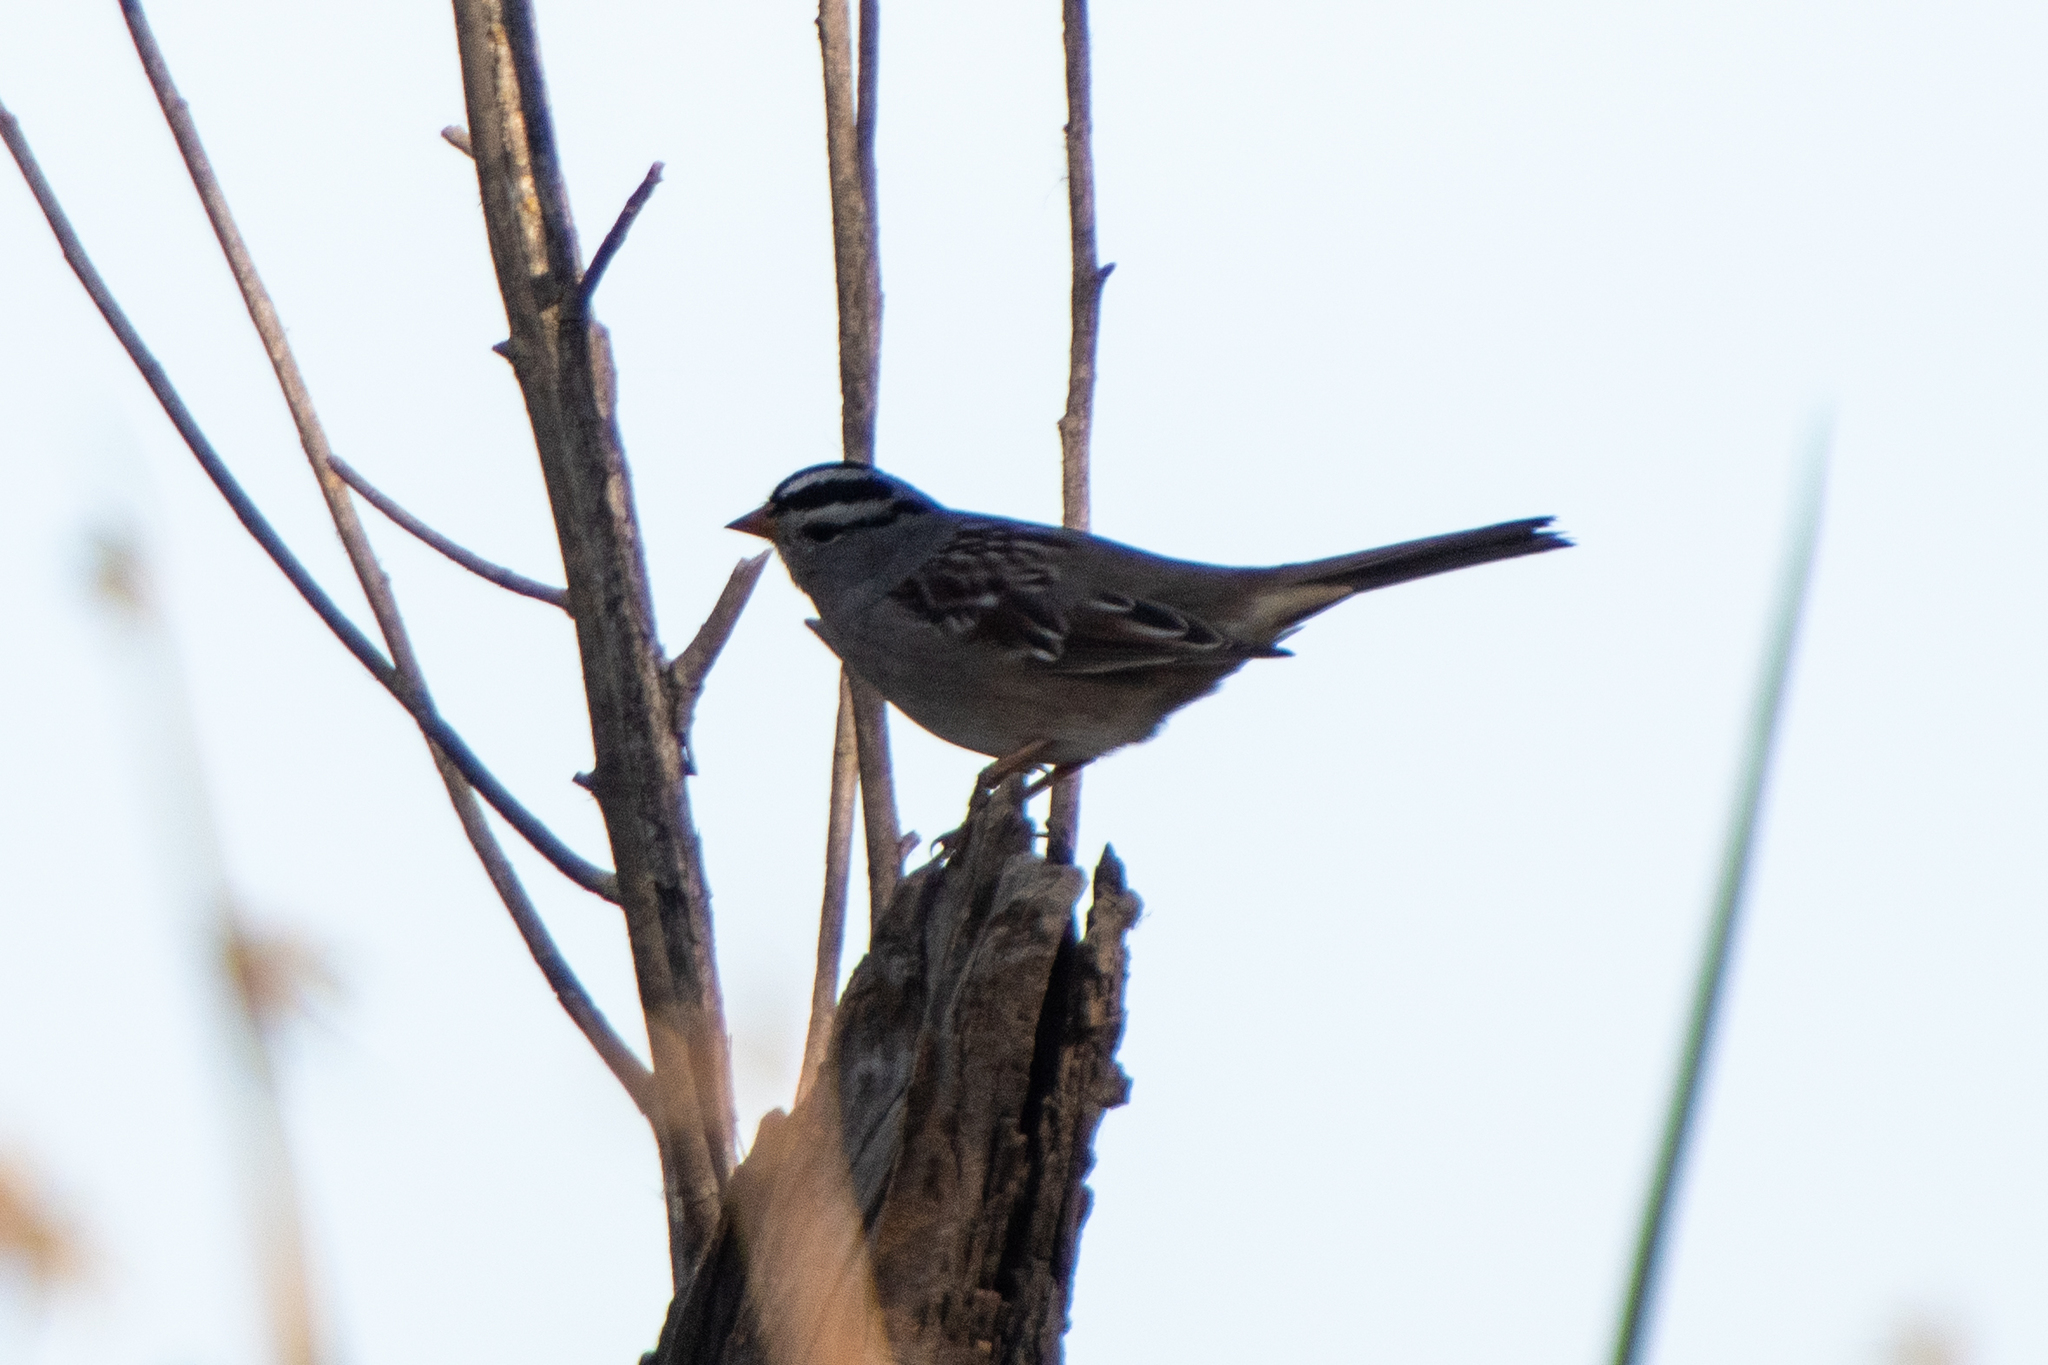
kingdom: Animalia
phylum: Chordata
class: Aves
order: Passeriformes
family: Passerellidae
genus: Zonotrichia
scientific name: Zonotrichia leucophrys
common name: White-crowned sparrow
